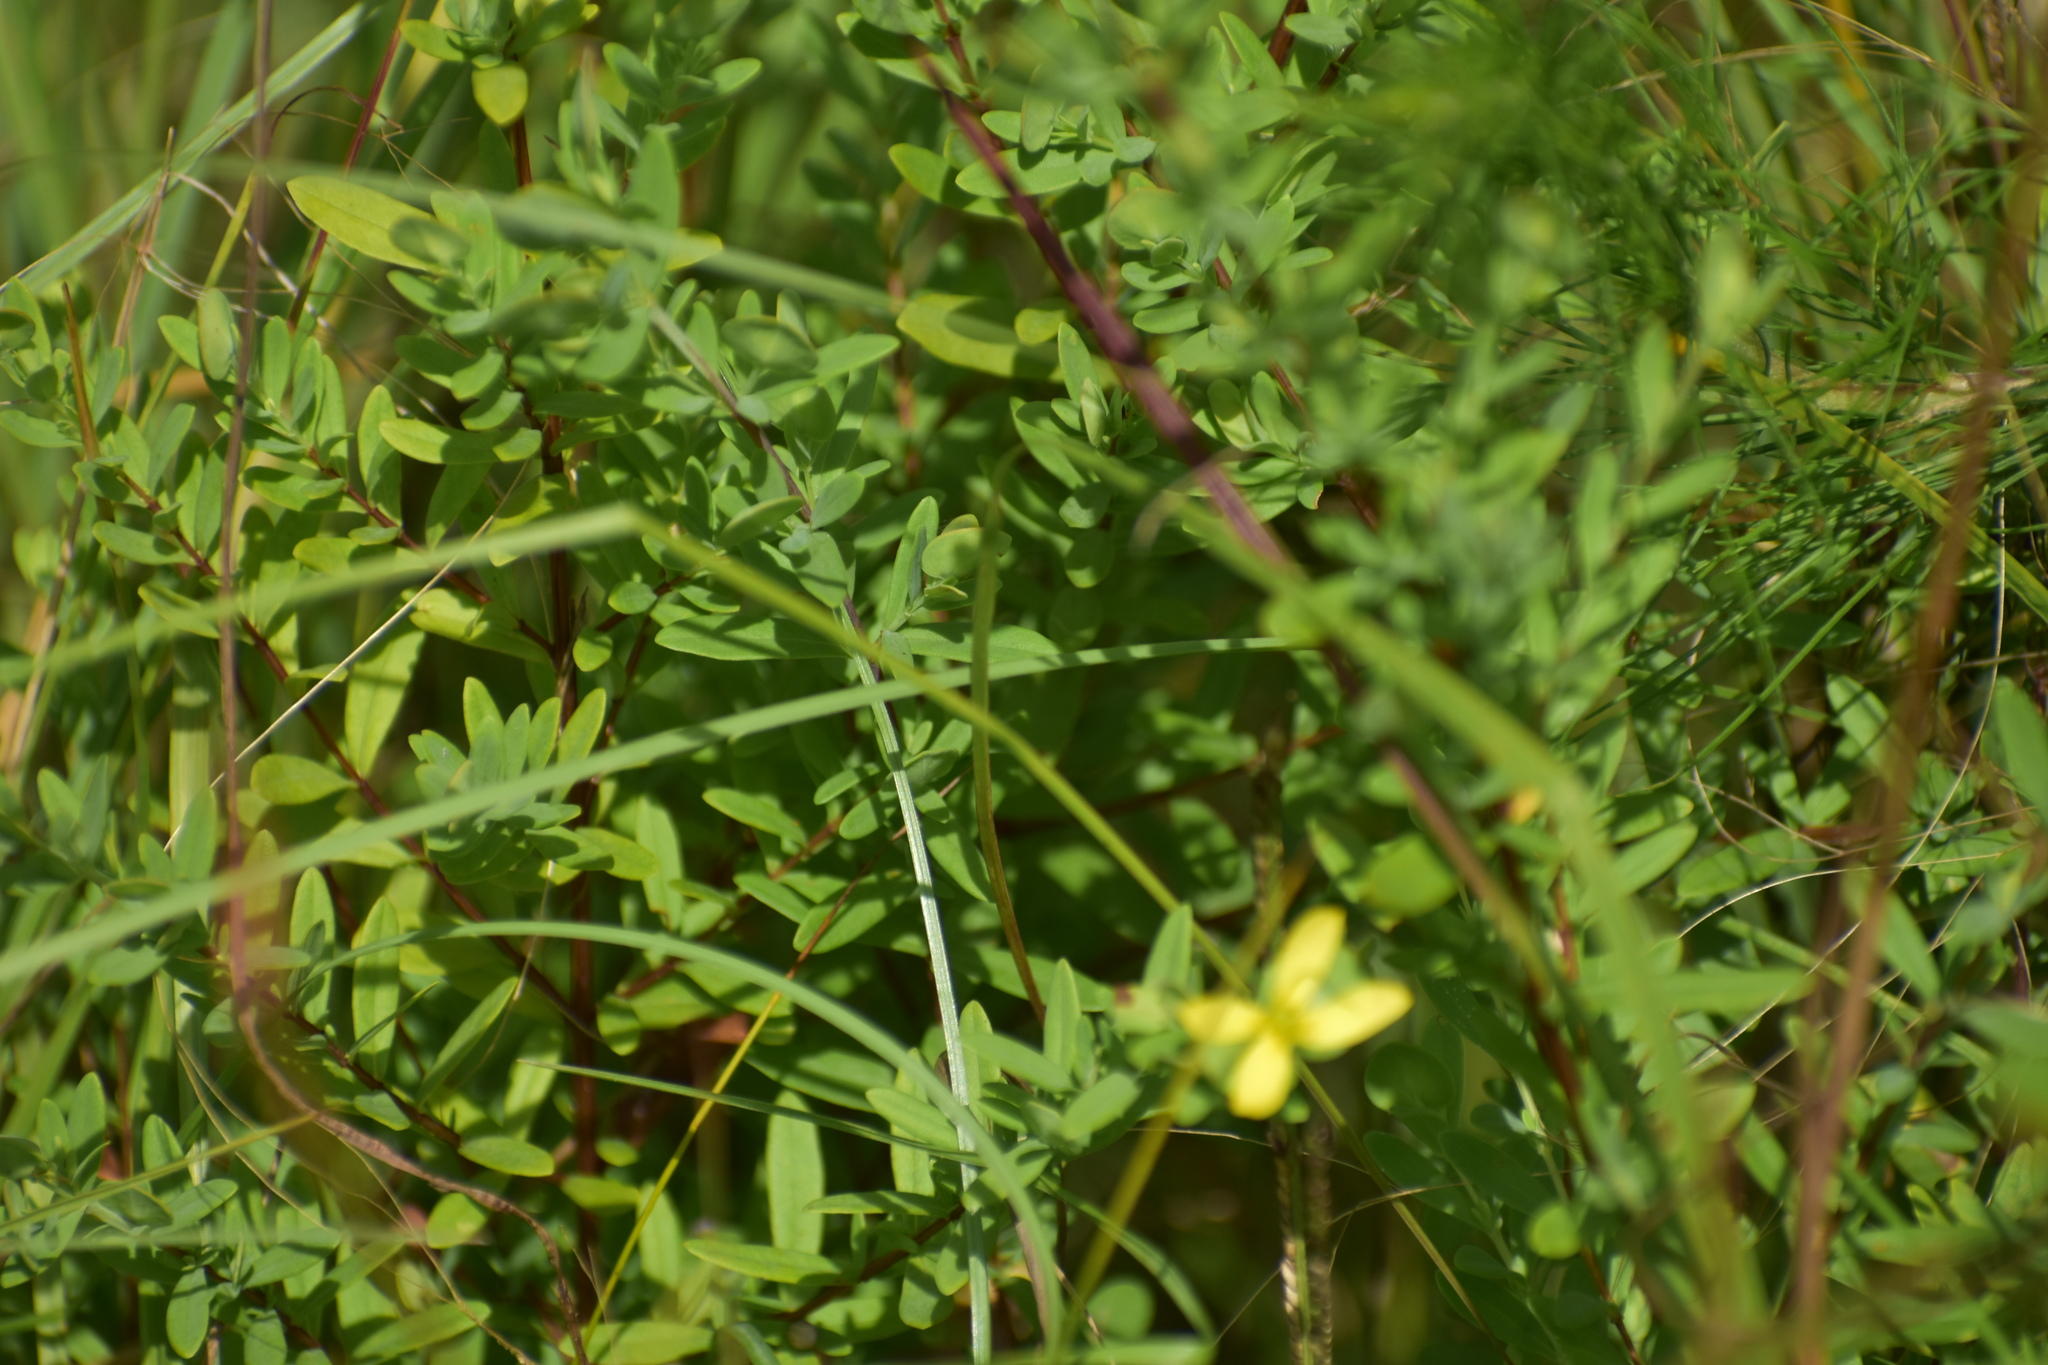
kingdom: Plantae
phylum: Tracheophyta
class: Magnoliopsida
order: Malpighiales
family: Hypericaceae
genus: Hypericum
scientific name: Hypericum hypericoides
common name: St. andrew's cross
